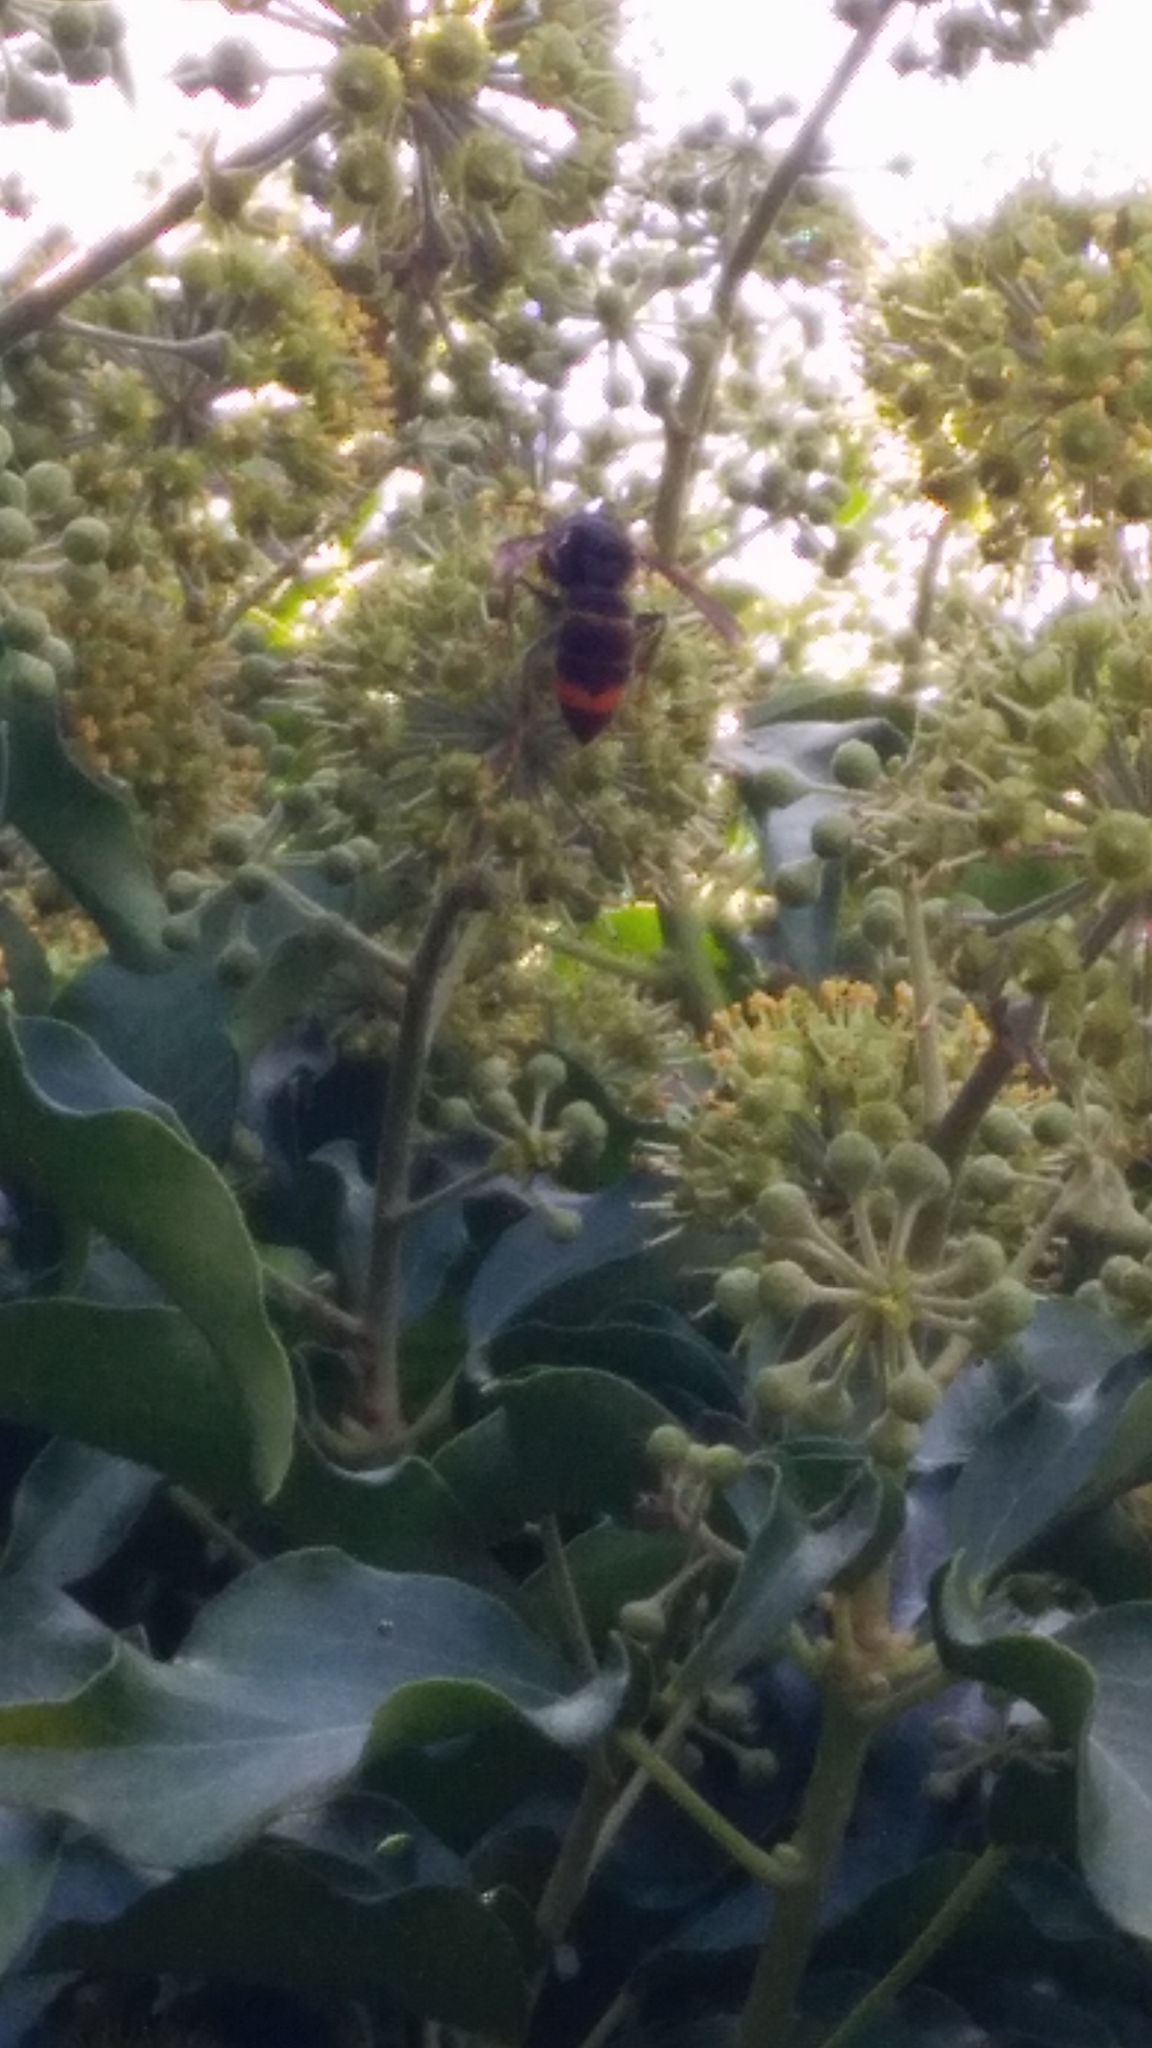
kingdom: Animalia
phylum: Arthropoda
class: Insecta
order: Hymenoptera
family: Vespidae
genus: Vespa
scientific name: Vespa velutina
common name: Asian hornet
